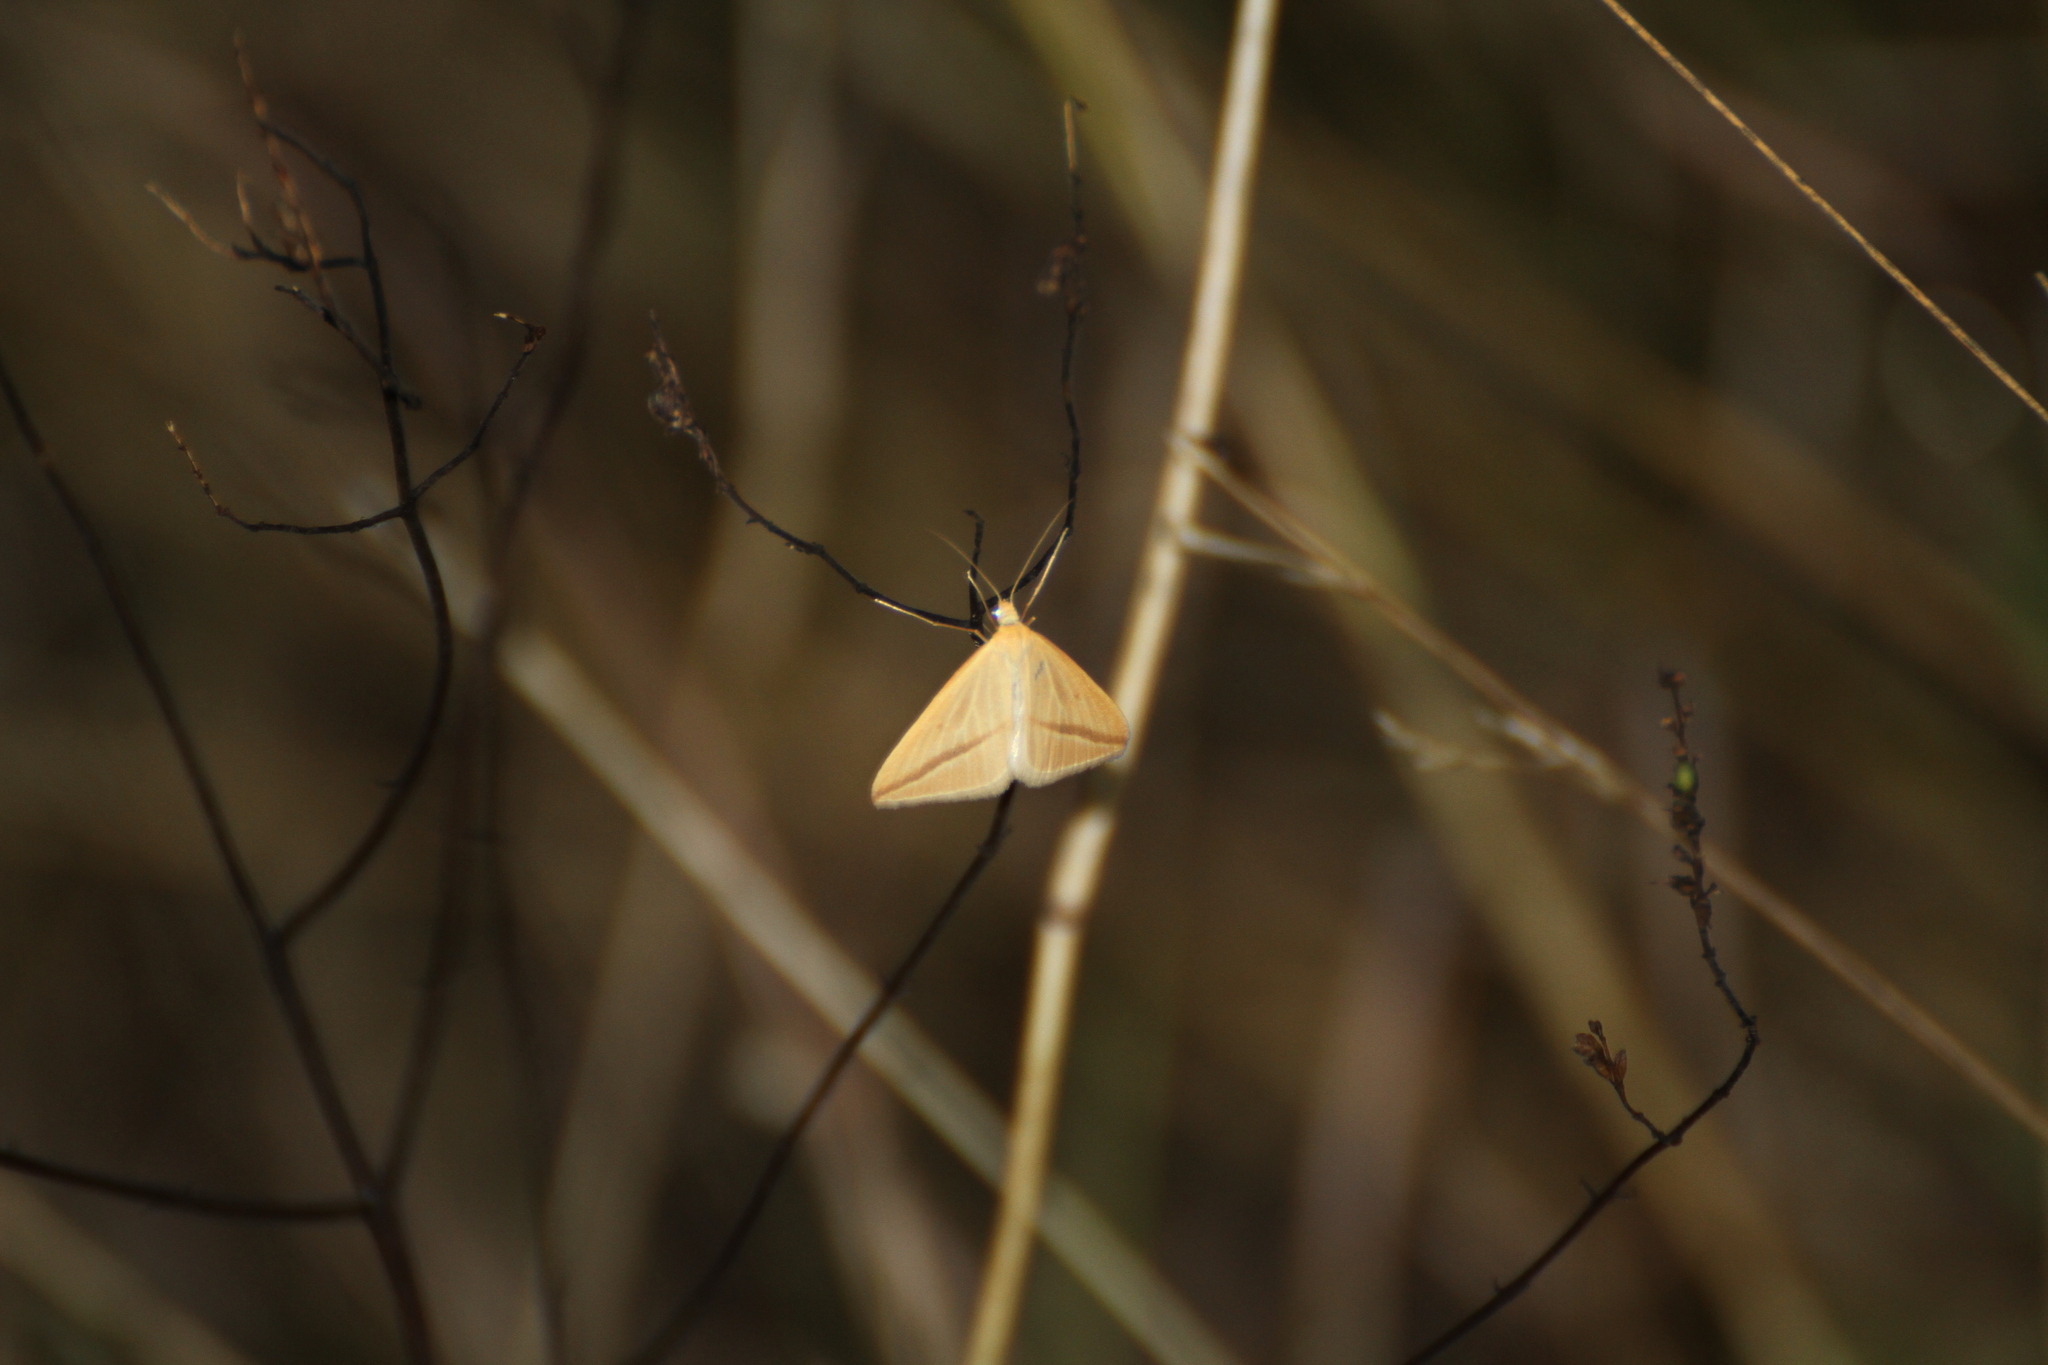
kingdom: Animalia
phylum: Arthropoda
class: Insecta
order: Lepidoptera
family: Geometridae
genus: Rhodometra
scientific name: Rhodometra sacraria
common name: Vestal
